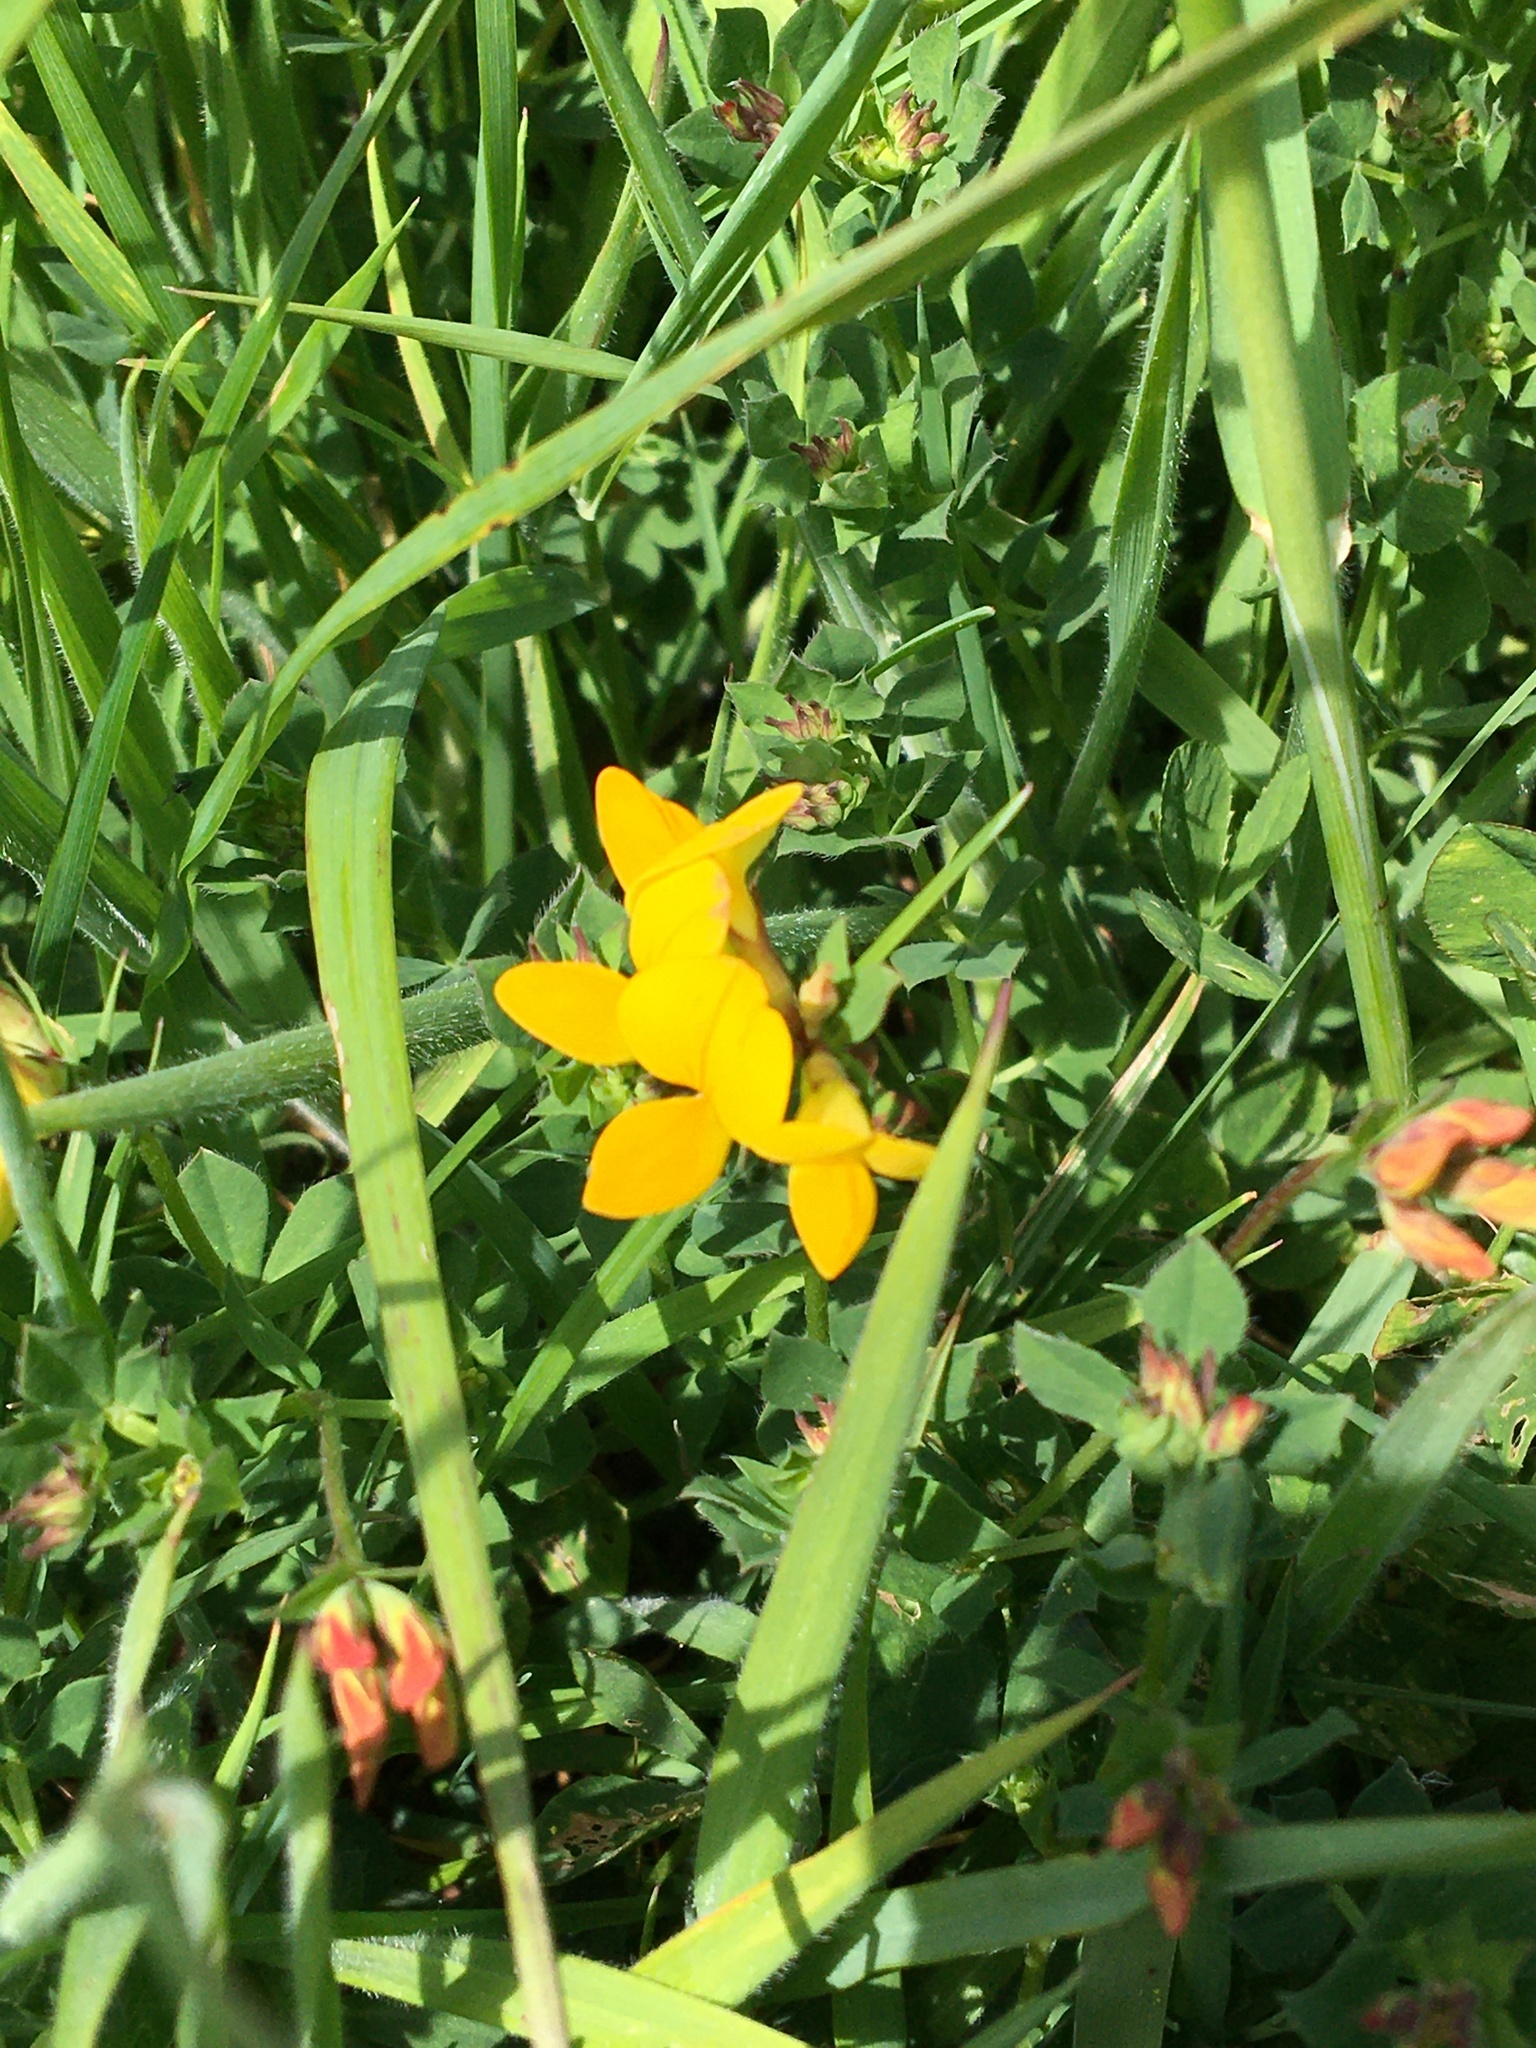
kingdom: Plantae
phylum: Tracheophyta
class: Magnoliopsida
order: Fabales
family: Fabaceae
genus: Lotus
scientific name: Lotus corniculatus
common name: Common bird's-foot-trefoil
